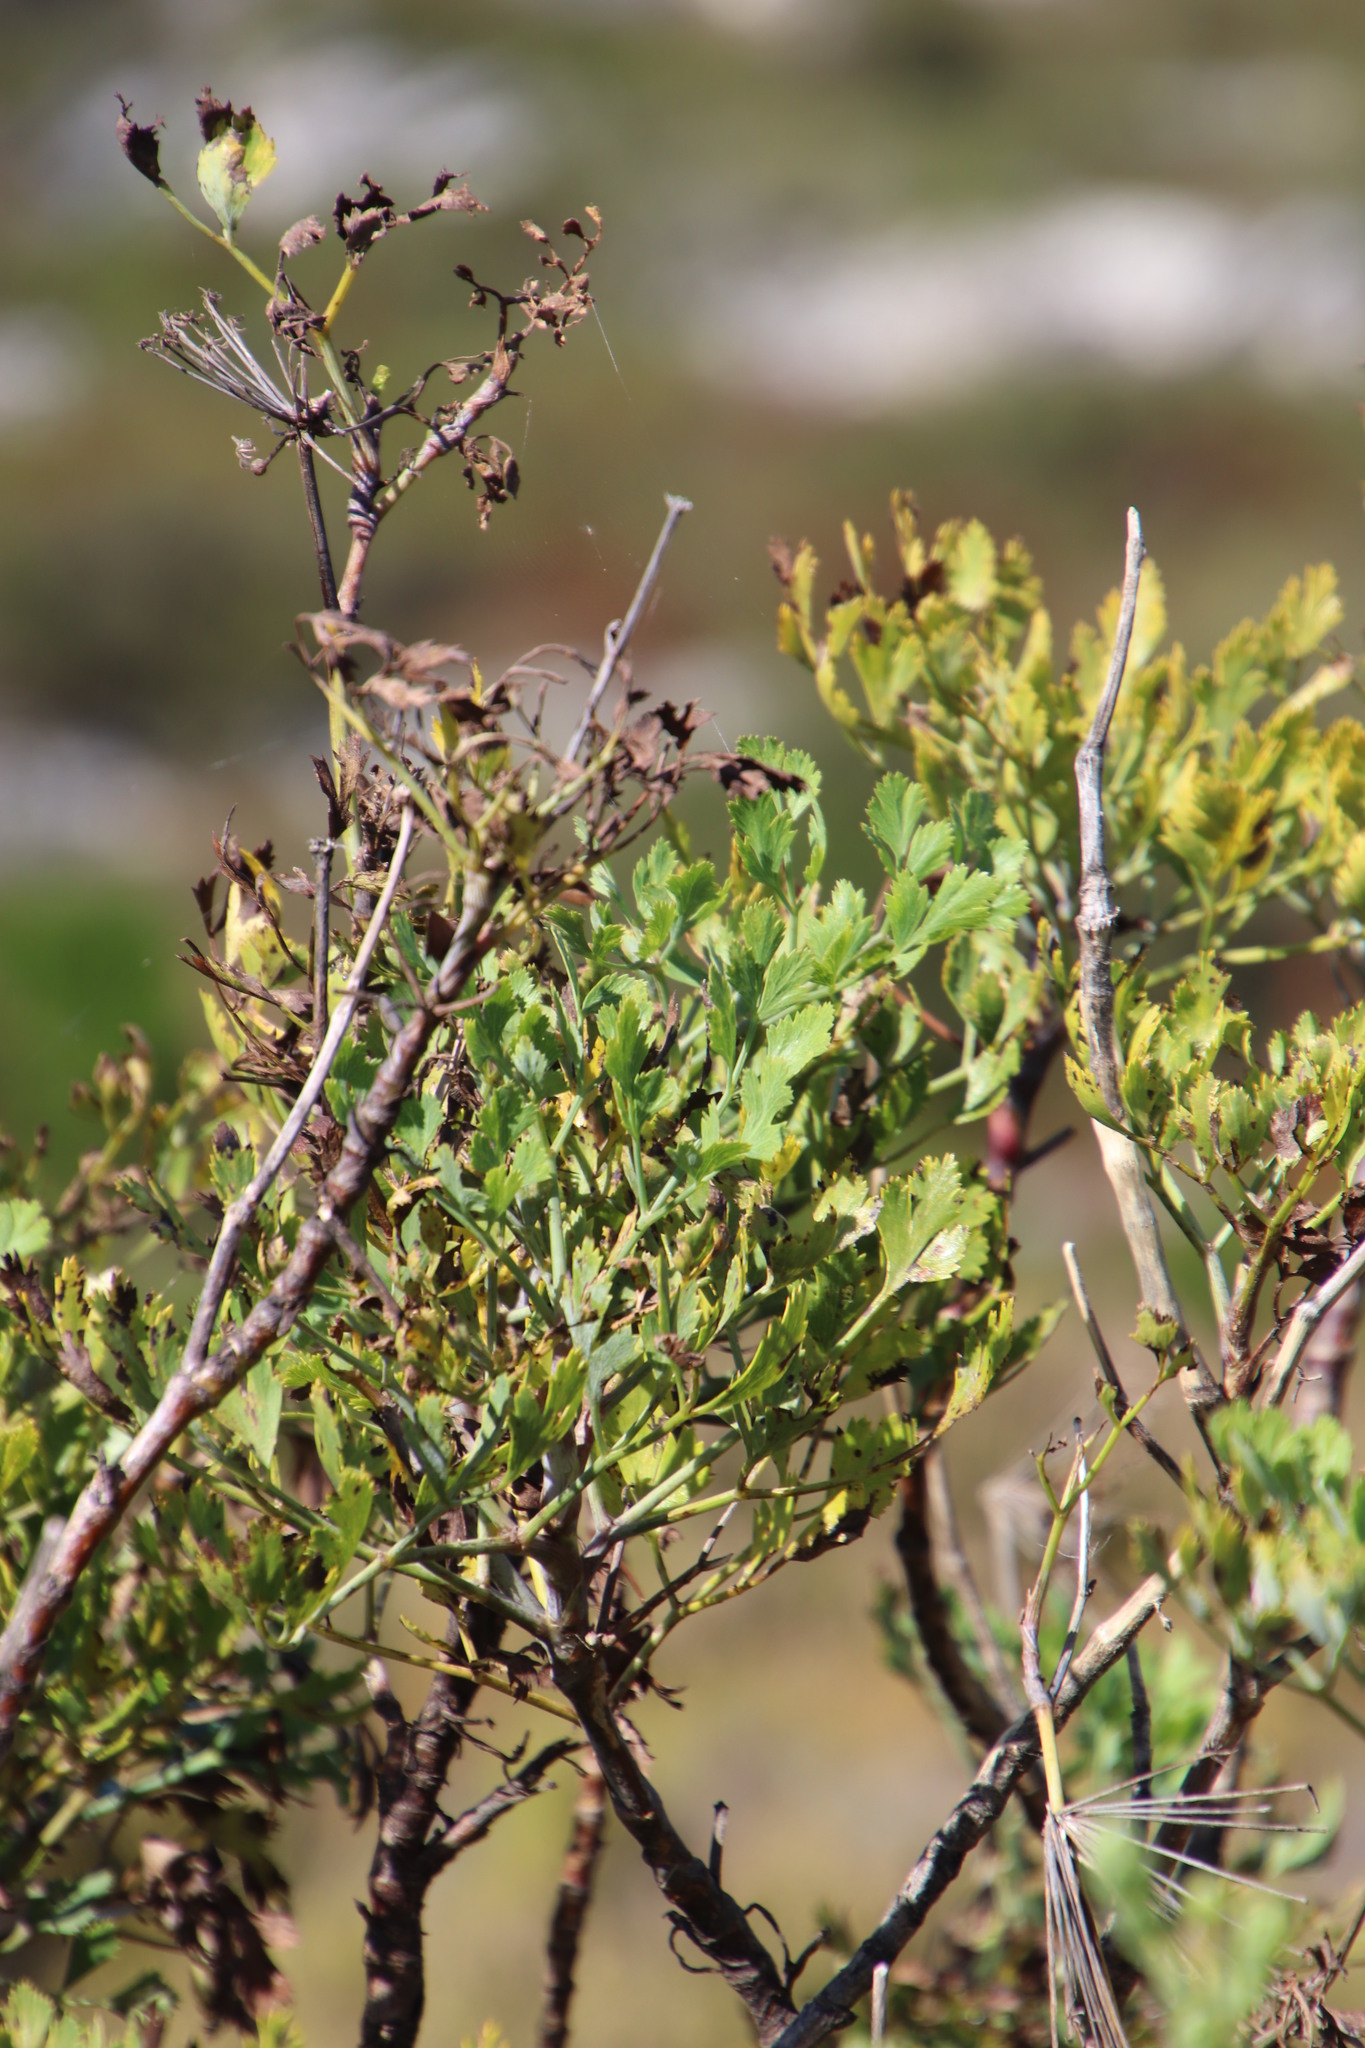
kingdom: Plantae
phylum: Tracheophyta
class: Magnoliopsida
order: Apiales
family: Apiaceae
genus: Notobubon
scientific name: Notobubon galbanum
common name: Blisterbush
